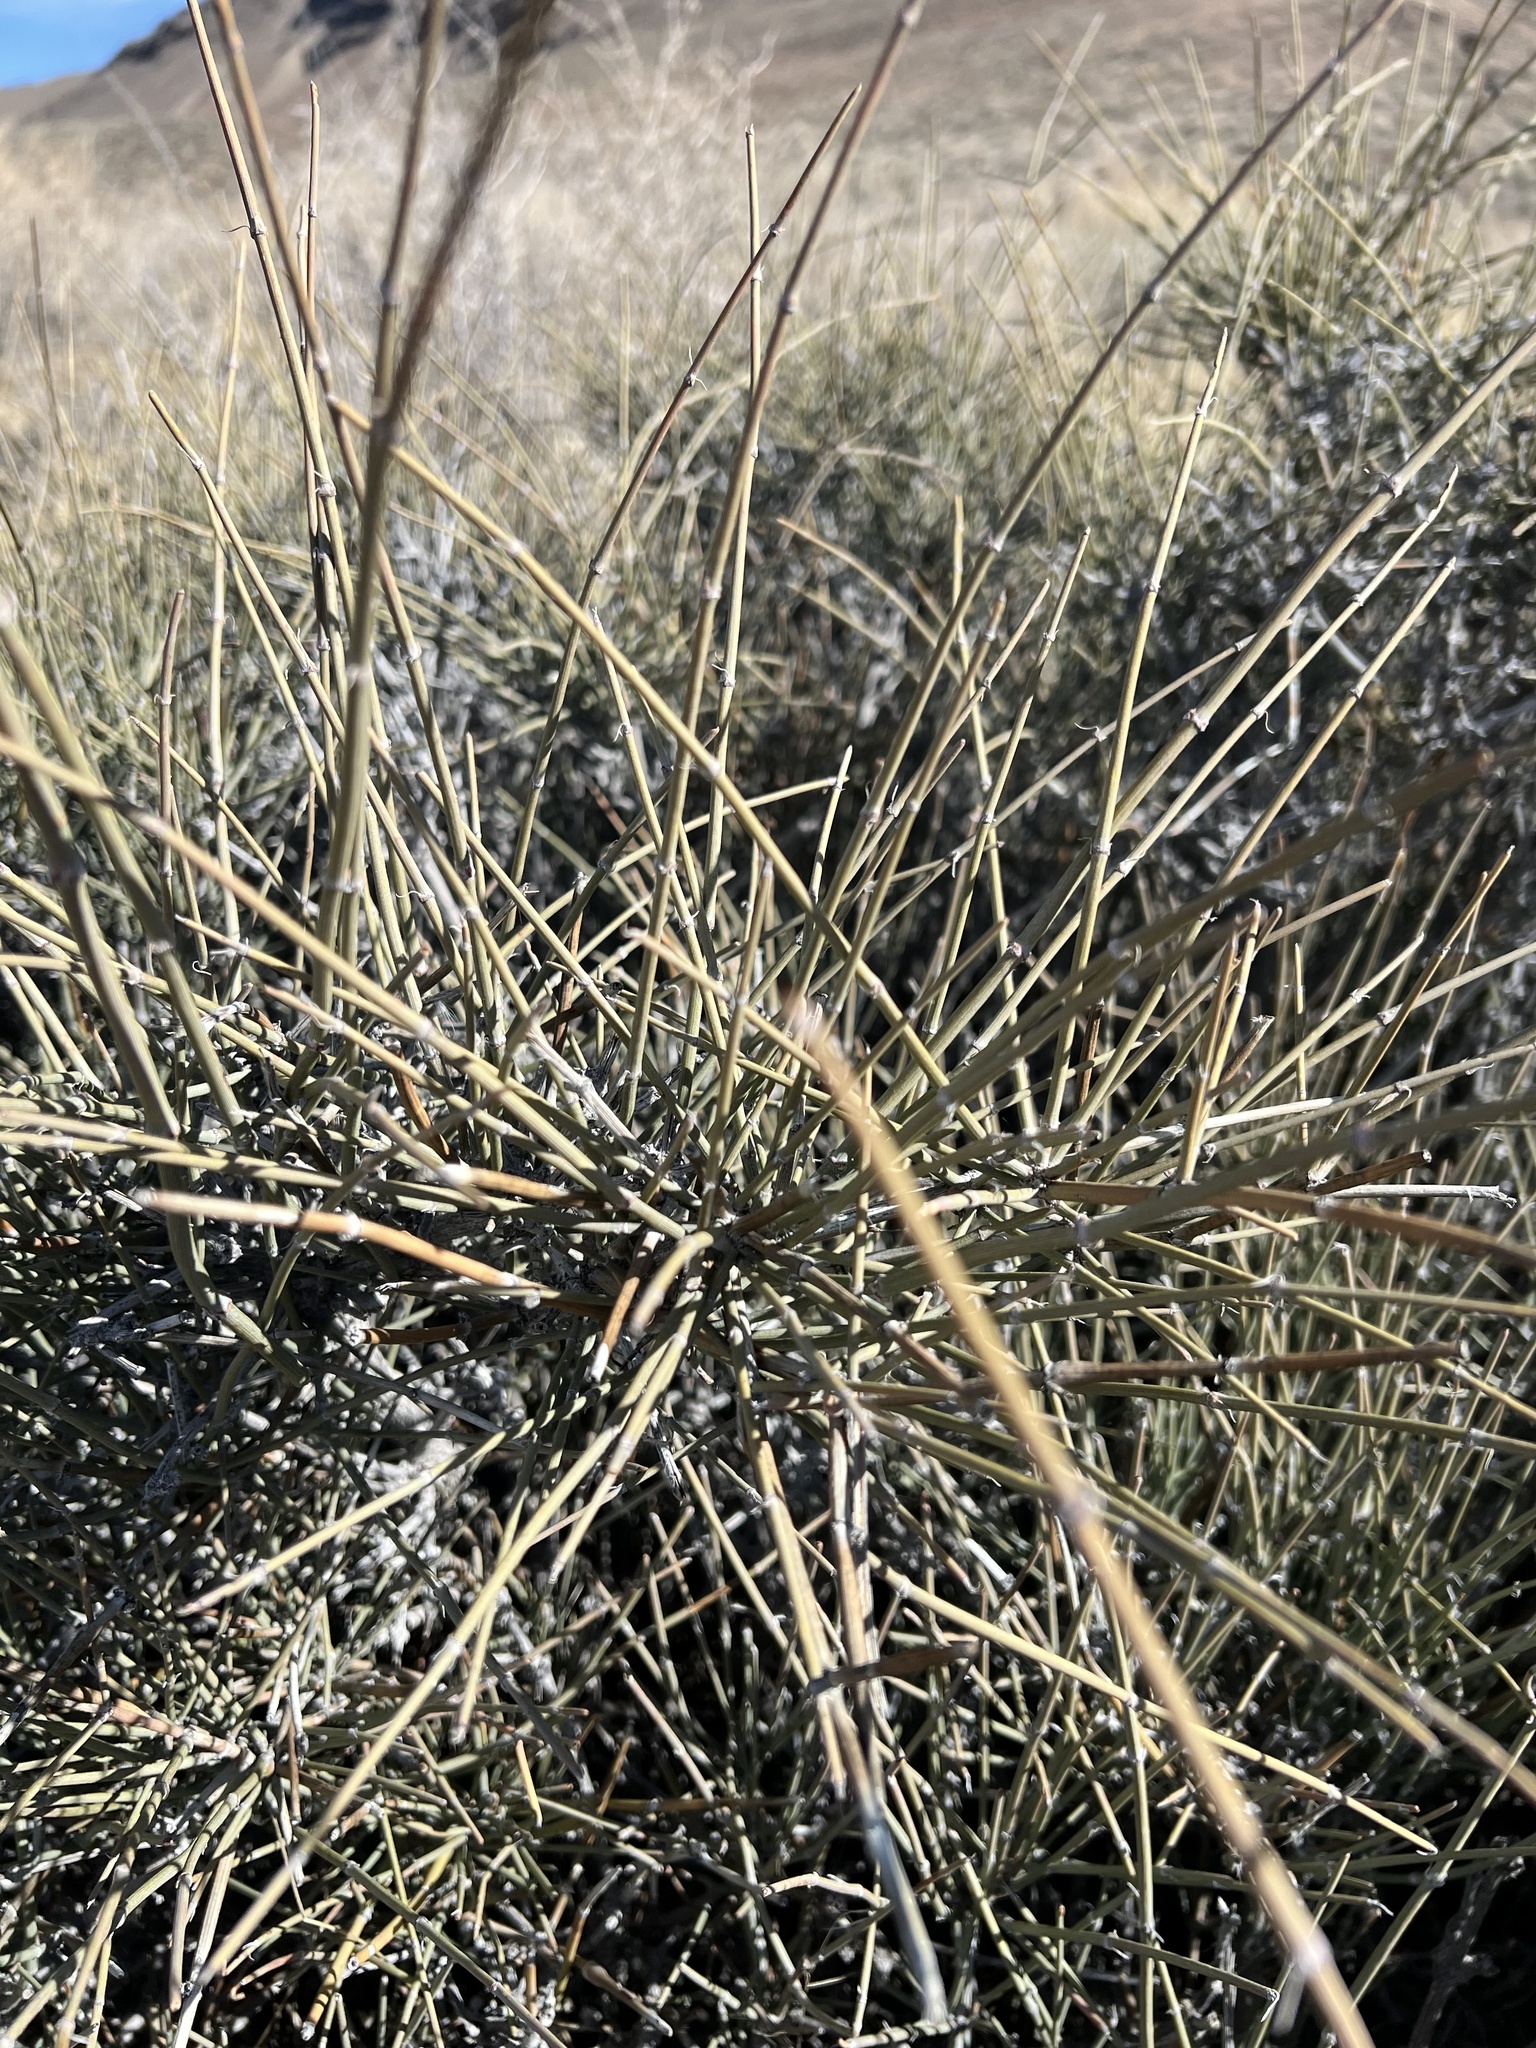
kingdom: Plantae
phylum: Tracheophyta
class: Gnetopsida
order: Ephedrales
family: Ephedraceae
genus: Ephedra
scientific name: Ephedra nevadensis
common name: Gray ephedra
